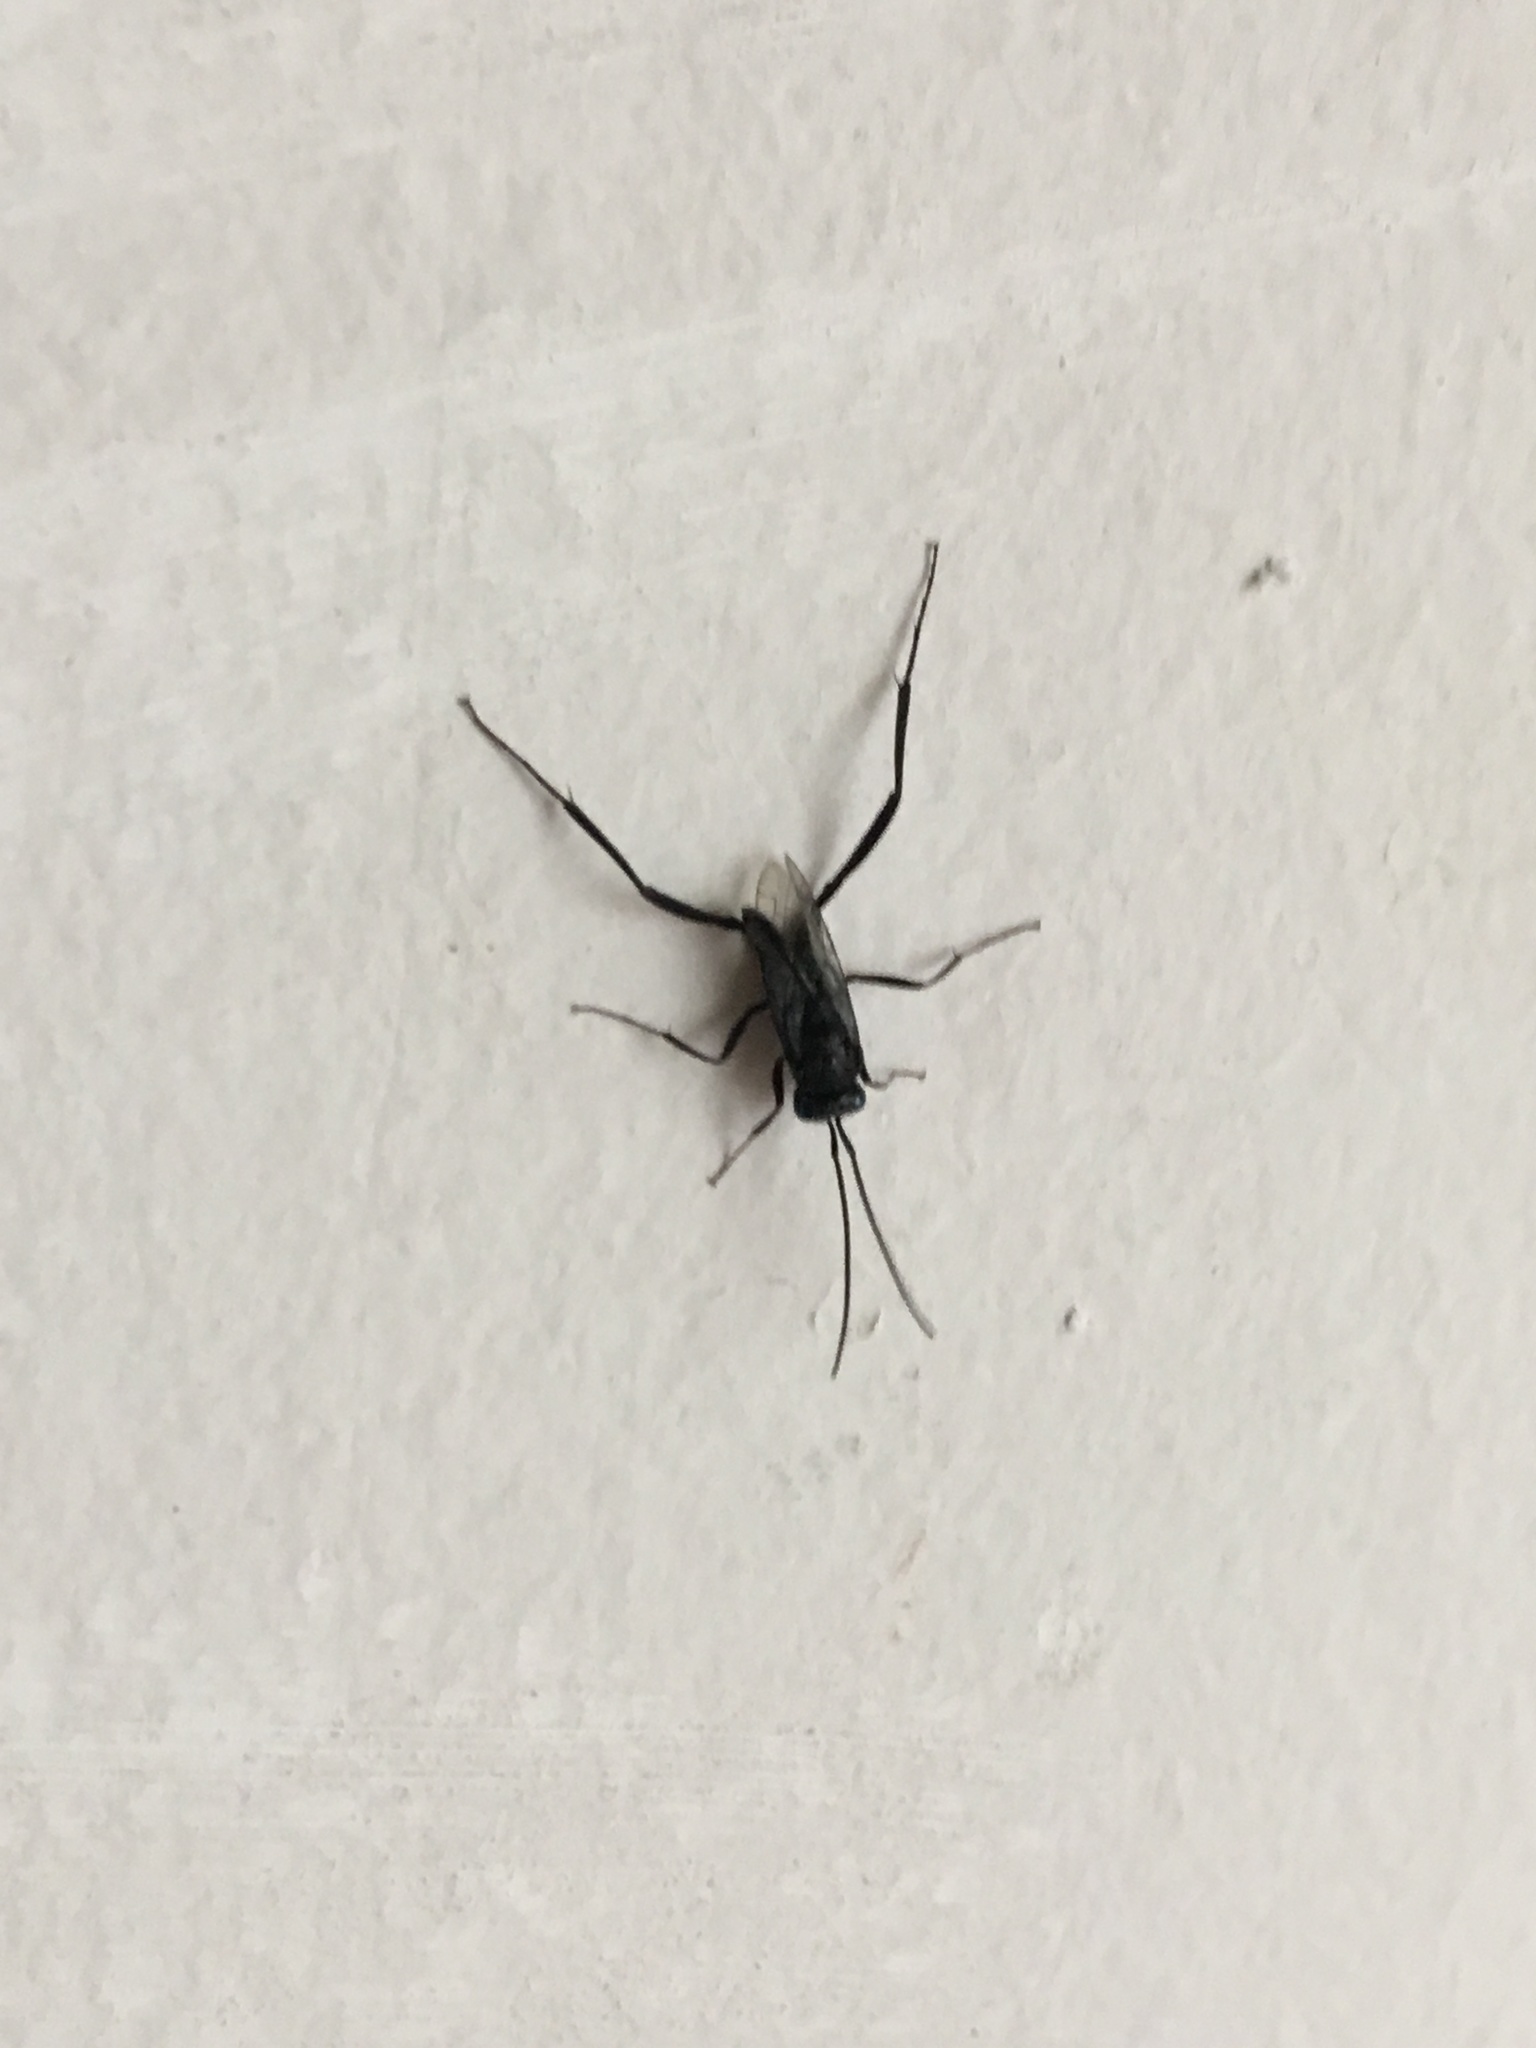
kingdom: Animalia
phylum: Arthropoda
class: Insecta
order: Hymenoptera
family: Evaniidae
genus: Evania
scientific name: Evania appendigaster
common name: Ensign wasp
